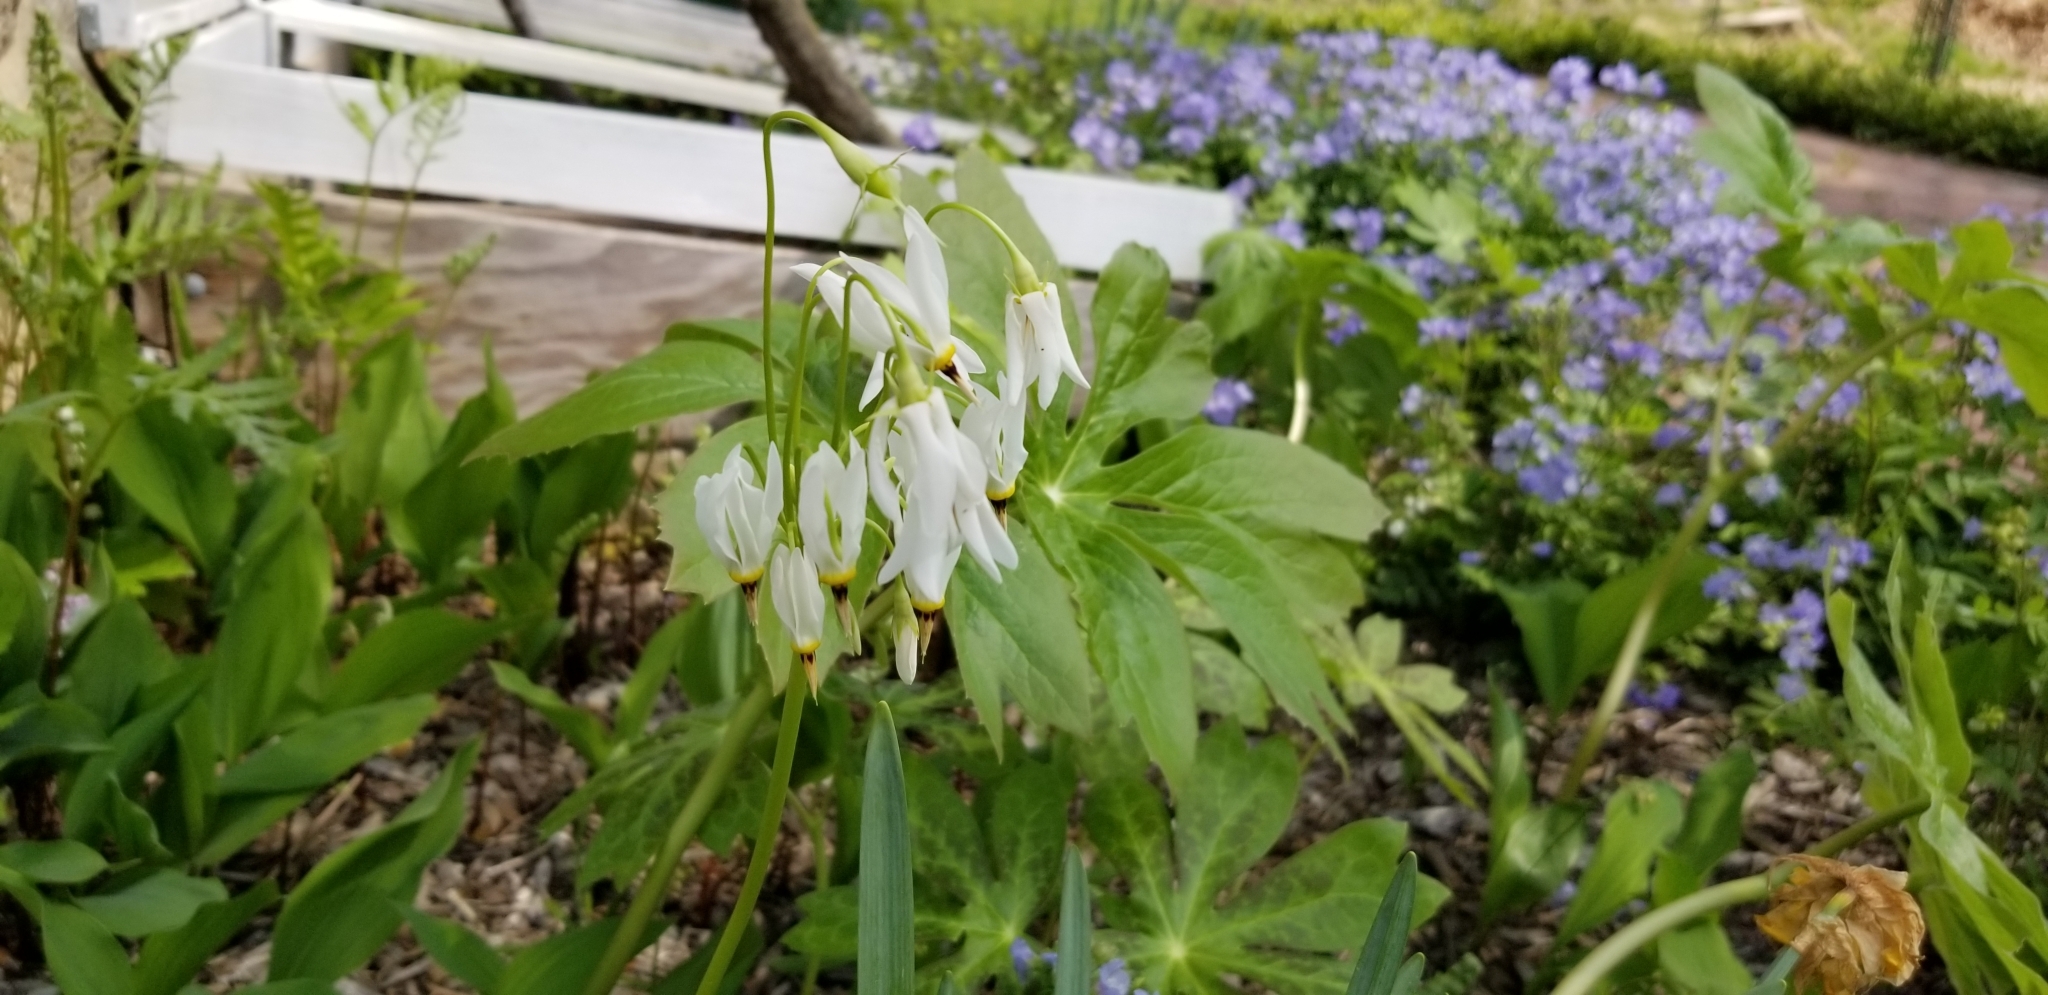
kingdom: Plantae
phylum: Tracheophyta
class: Magnoliopsida
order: Ericales
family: Primulaceae
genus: Dodecatheon
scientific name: Dodecatheon meadia
